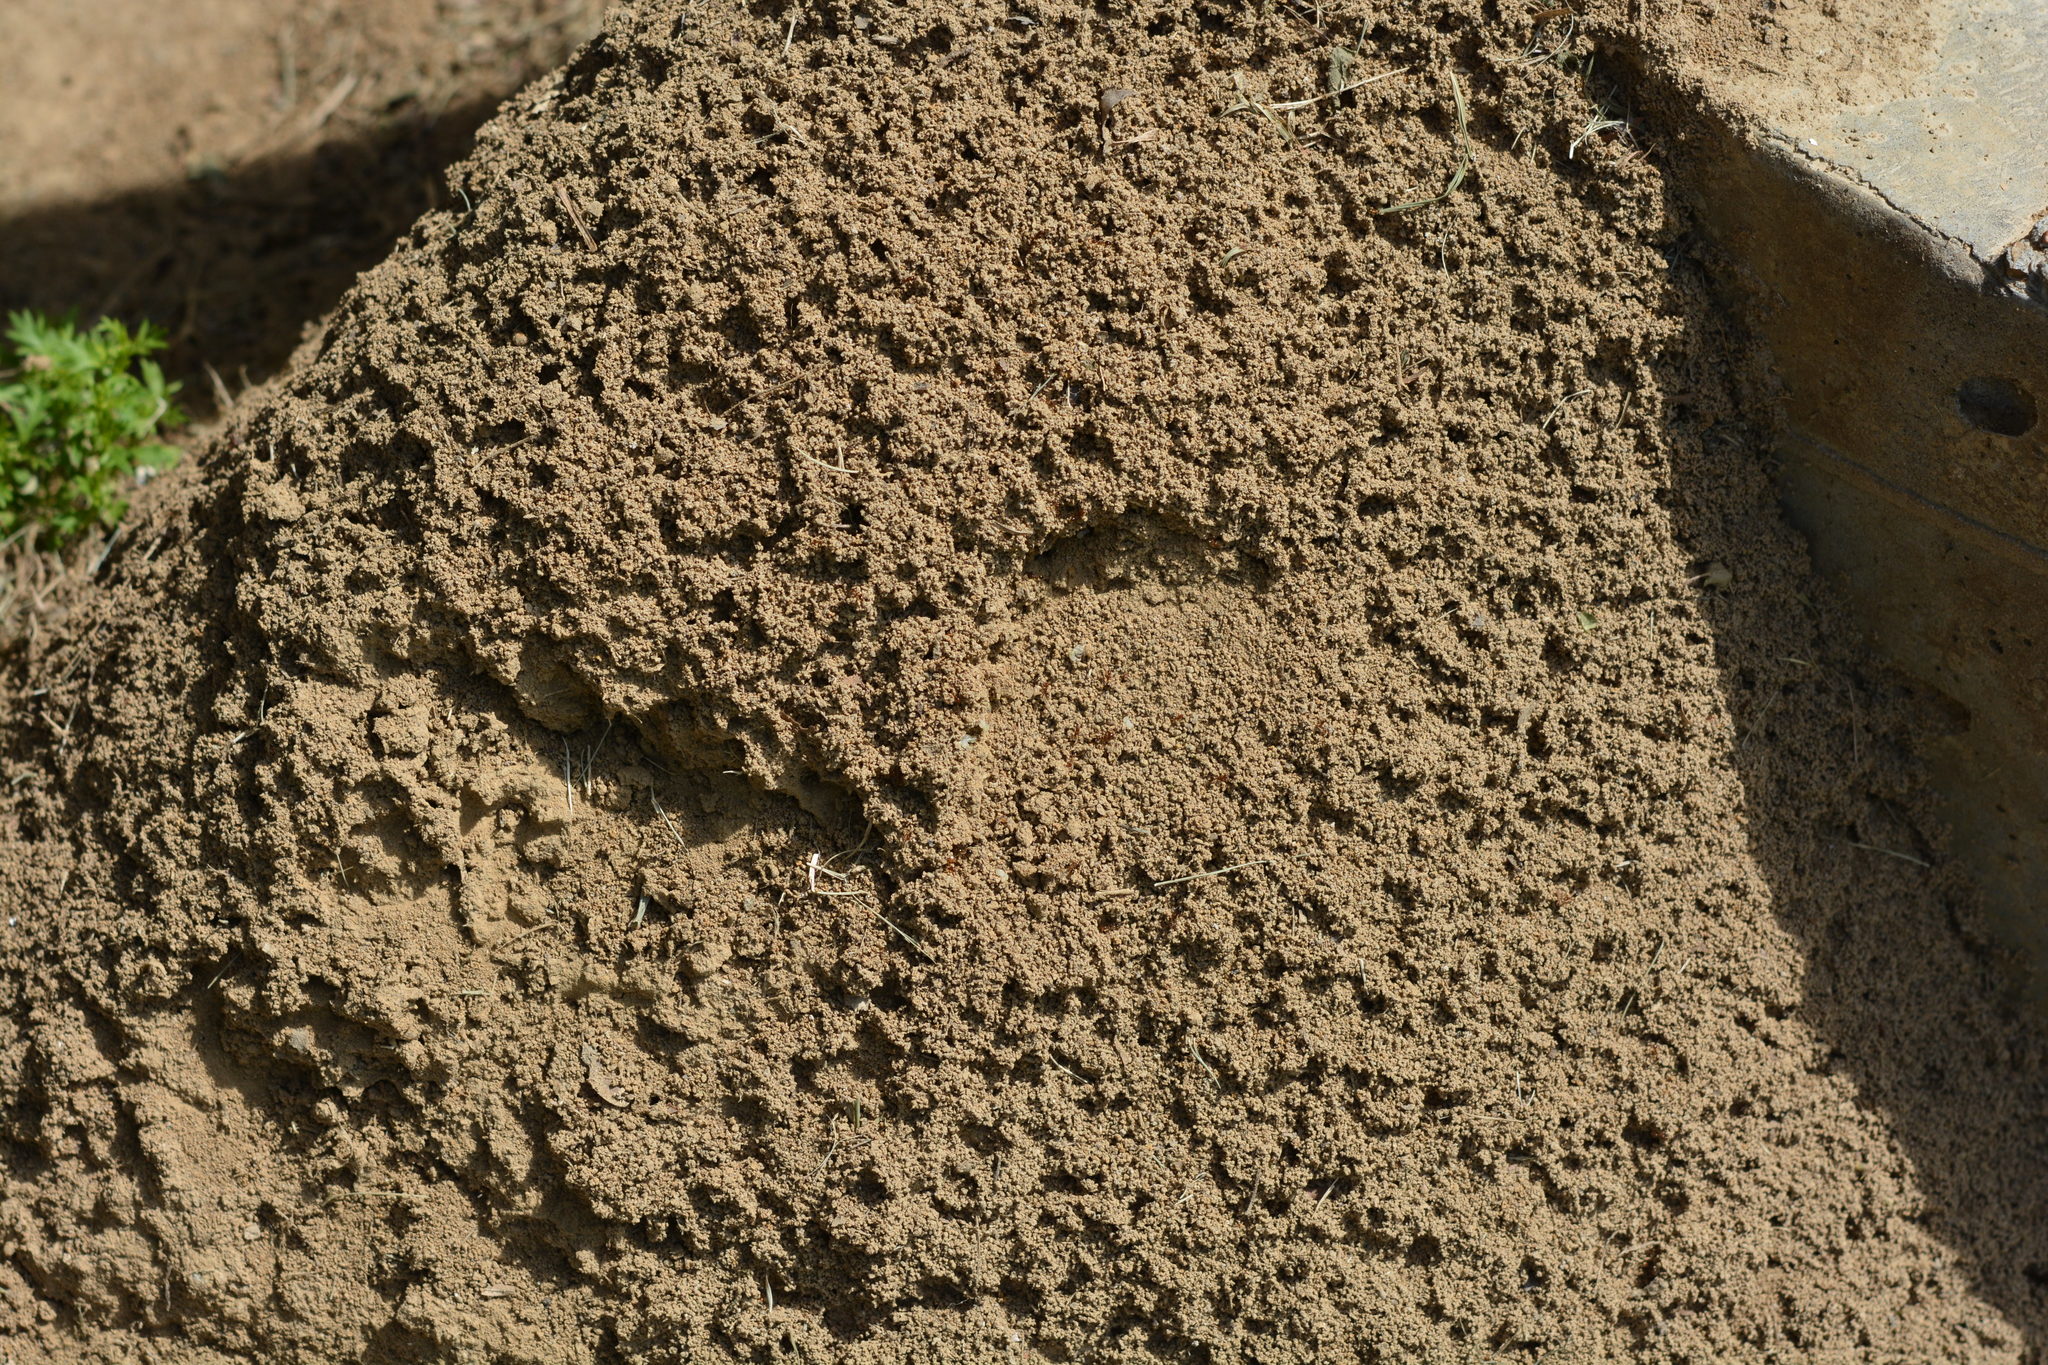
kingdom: Animalia
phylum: Arthropoda
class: Insecta
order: Hymenoptera
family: Formicidae
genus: Solenopsis
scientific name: Solenopsis invicta
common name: Red imported fire ant
